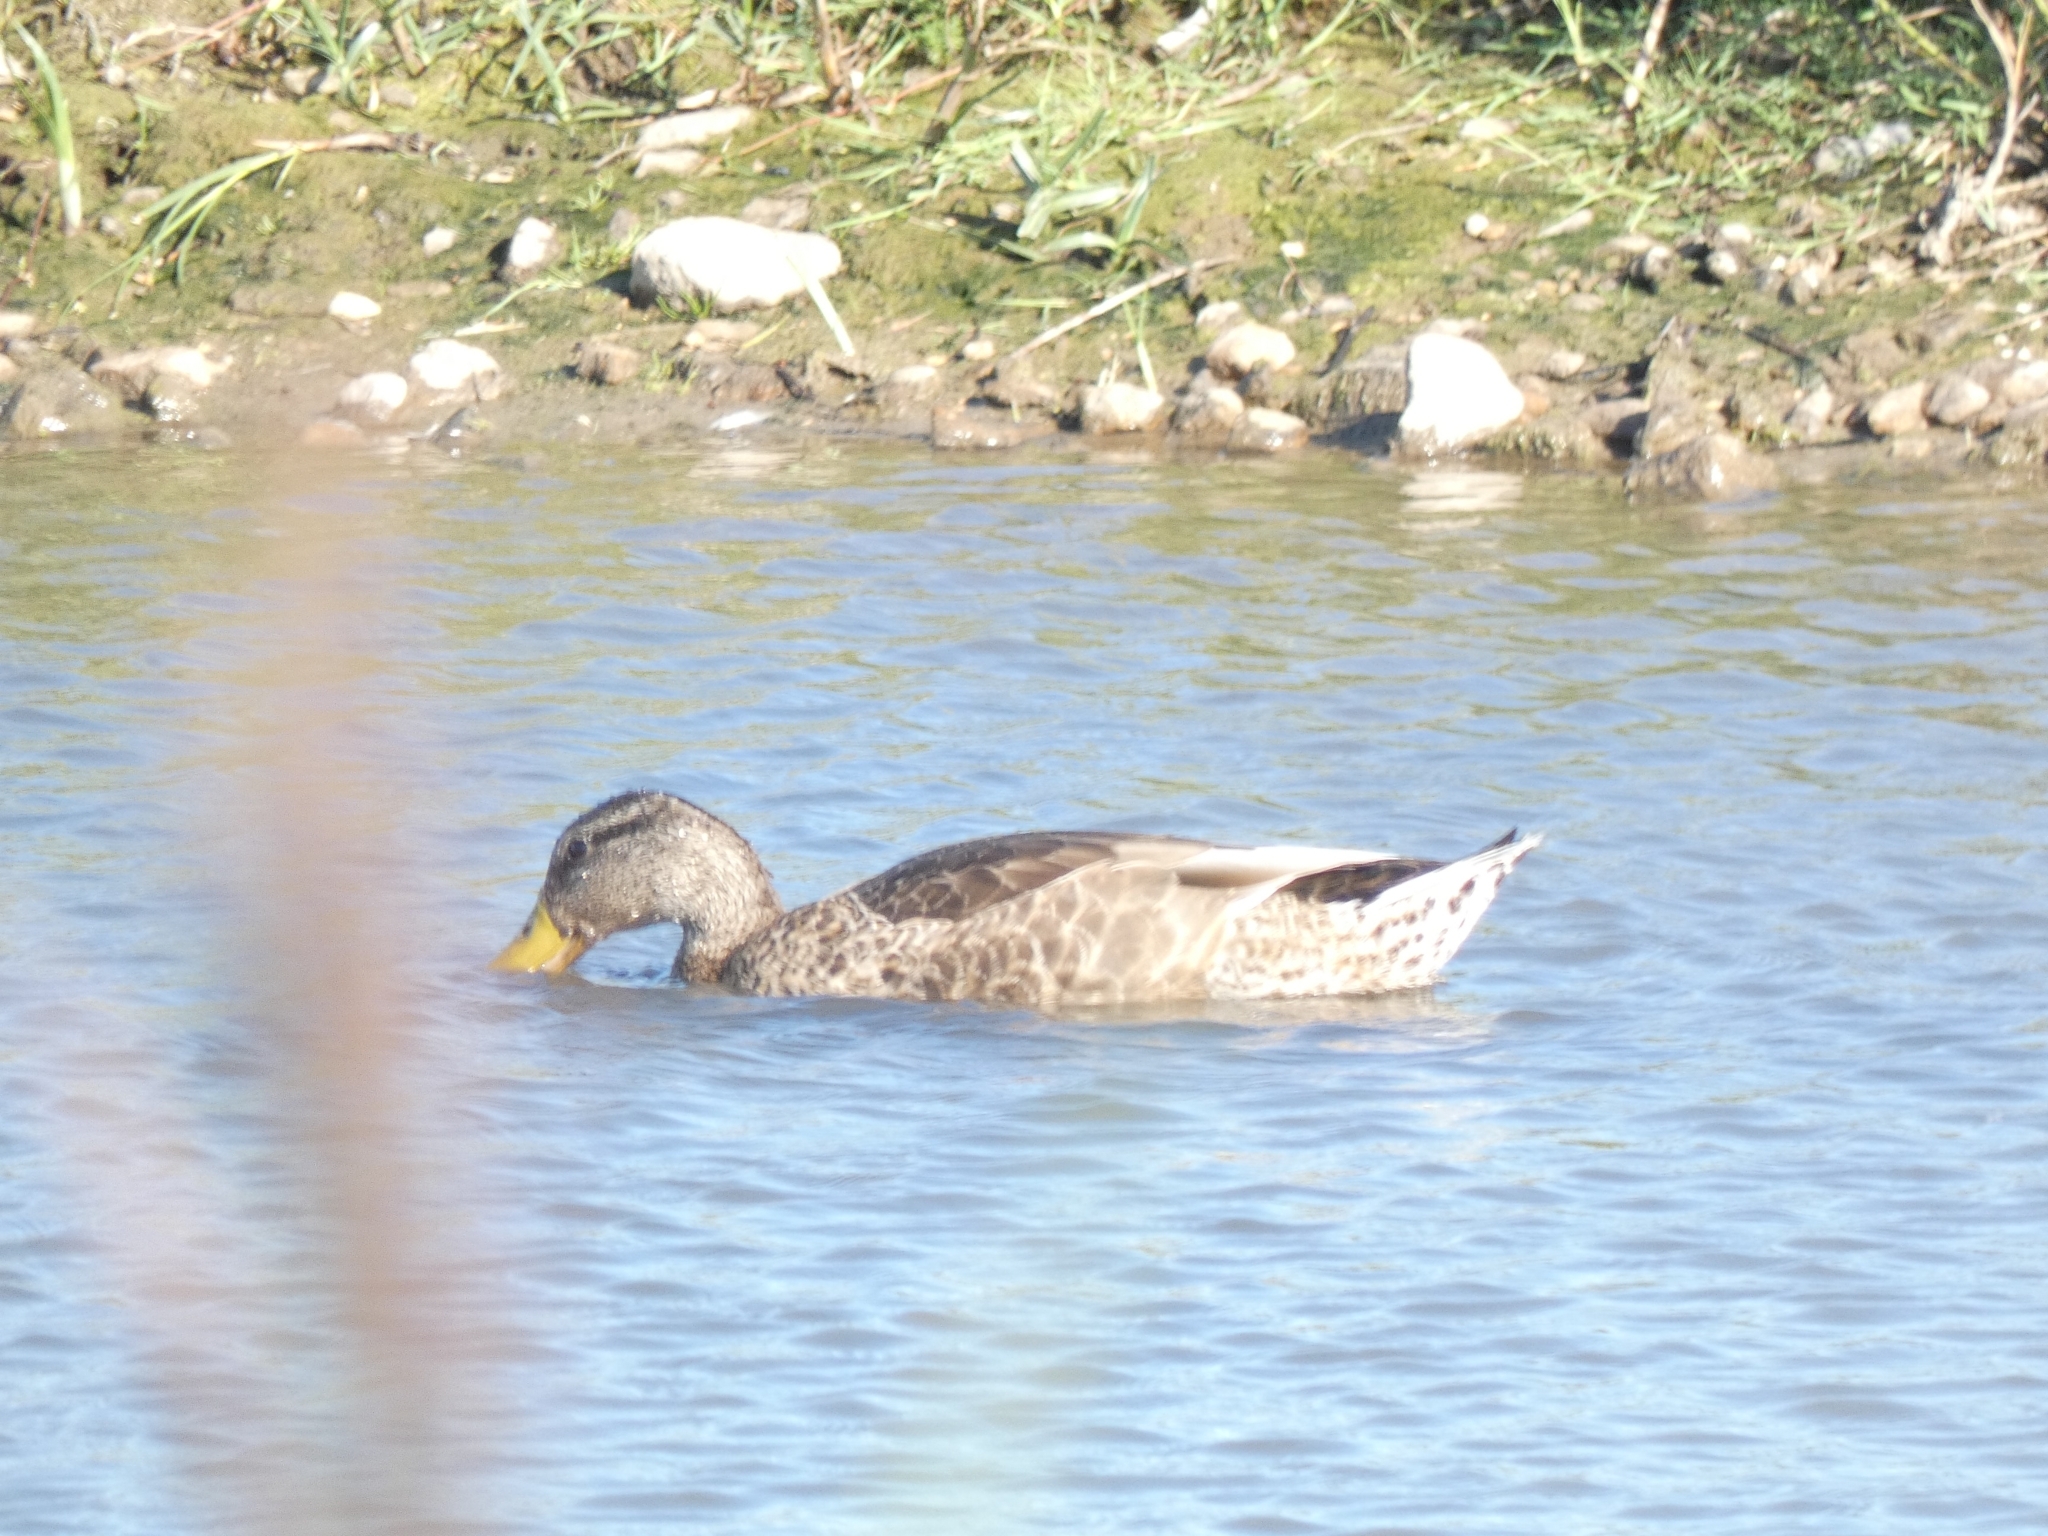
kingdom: Animalia
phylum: Chordata
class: Aves
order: Anseriformes
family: Anatidae
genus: Anas
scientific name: Anas platyrhynchos
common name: Mallard
